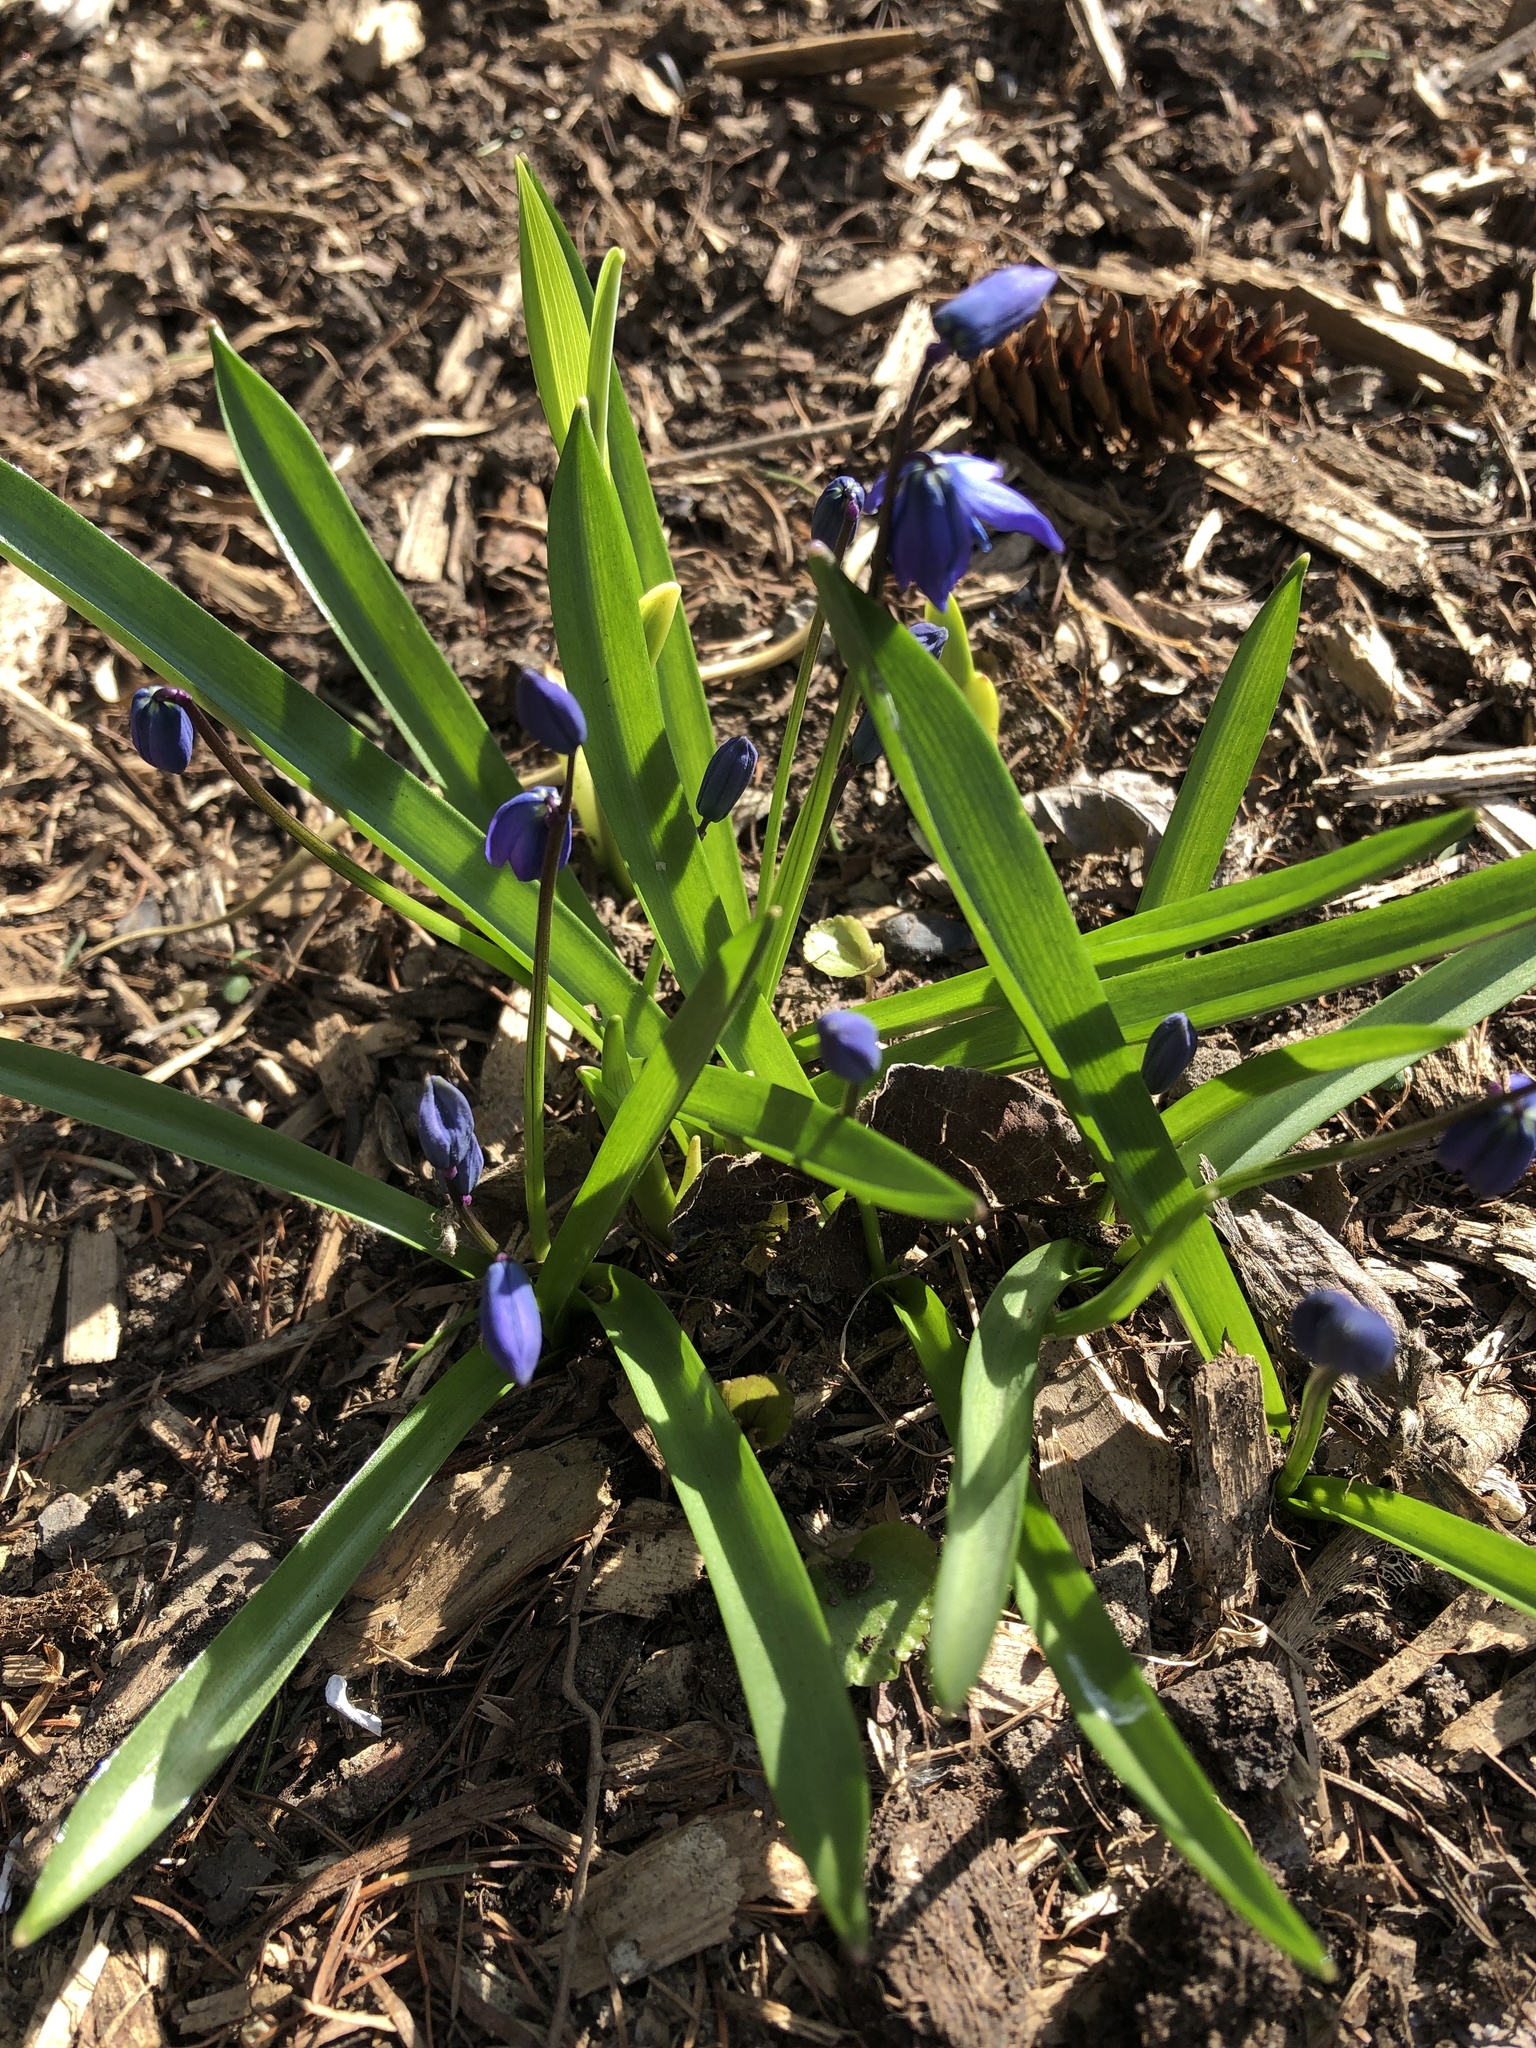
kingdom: Plantae
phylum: Tracheophyta
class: Liliopsida
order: Asparagales
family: Asparagaceae
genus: Scilla
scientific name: Scilla siberica
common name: Siberian squill
